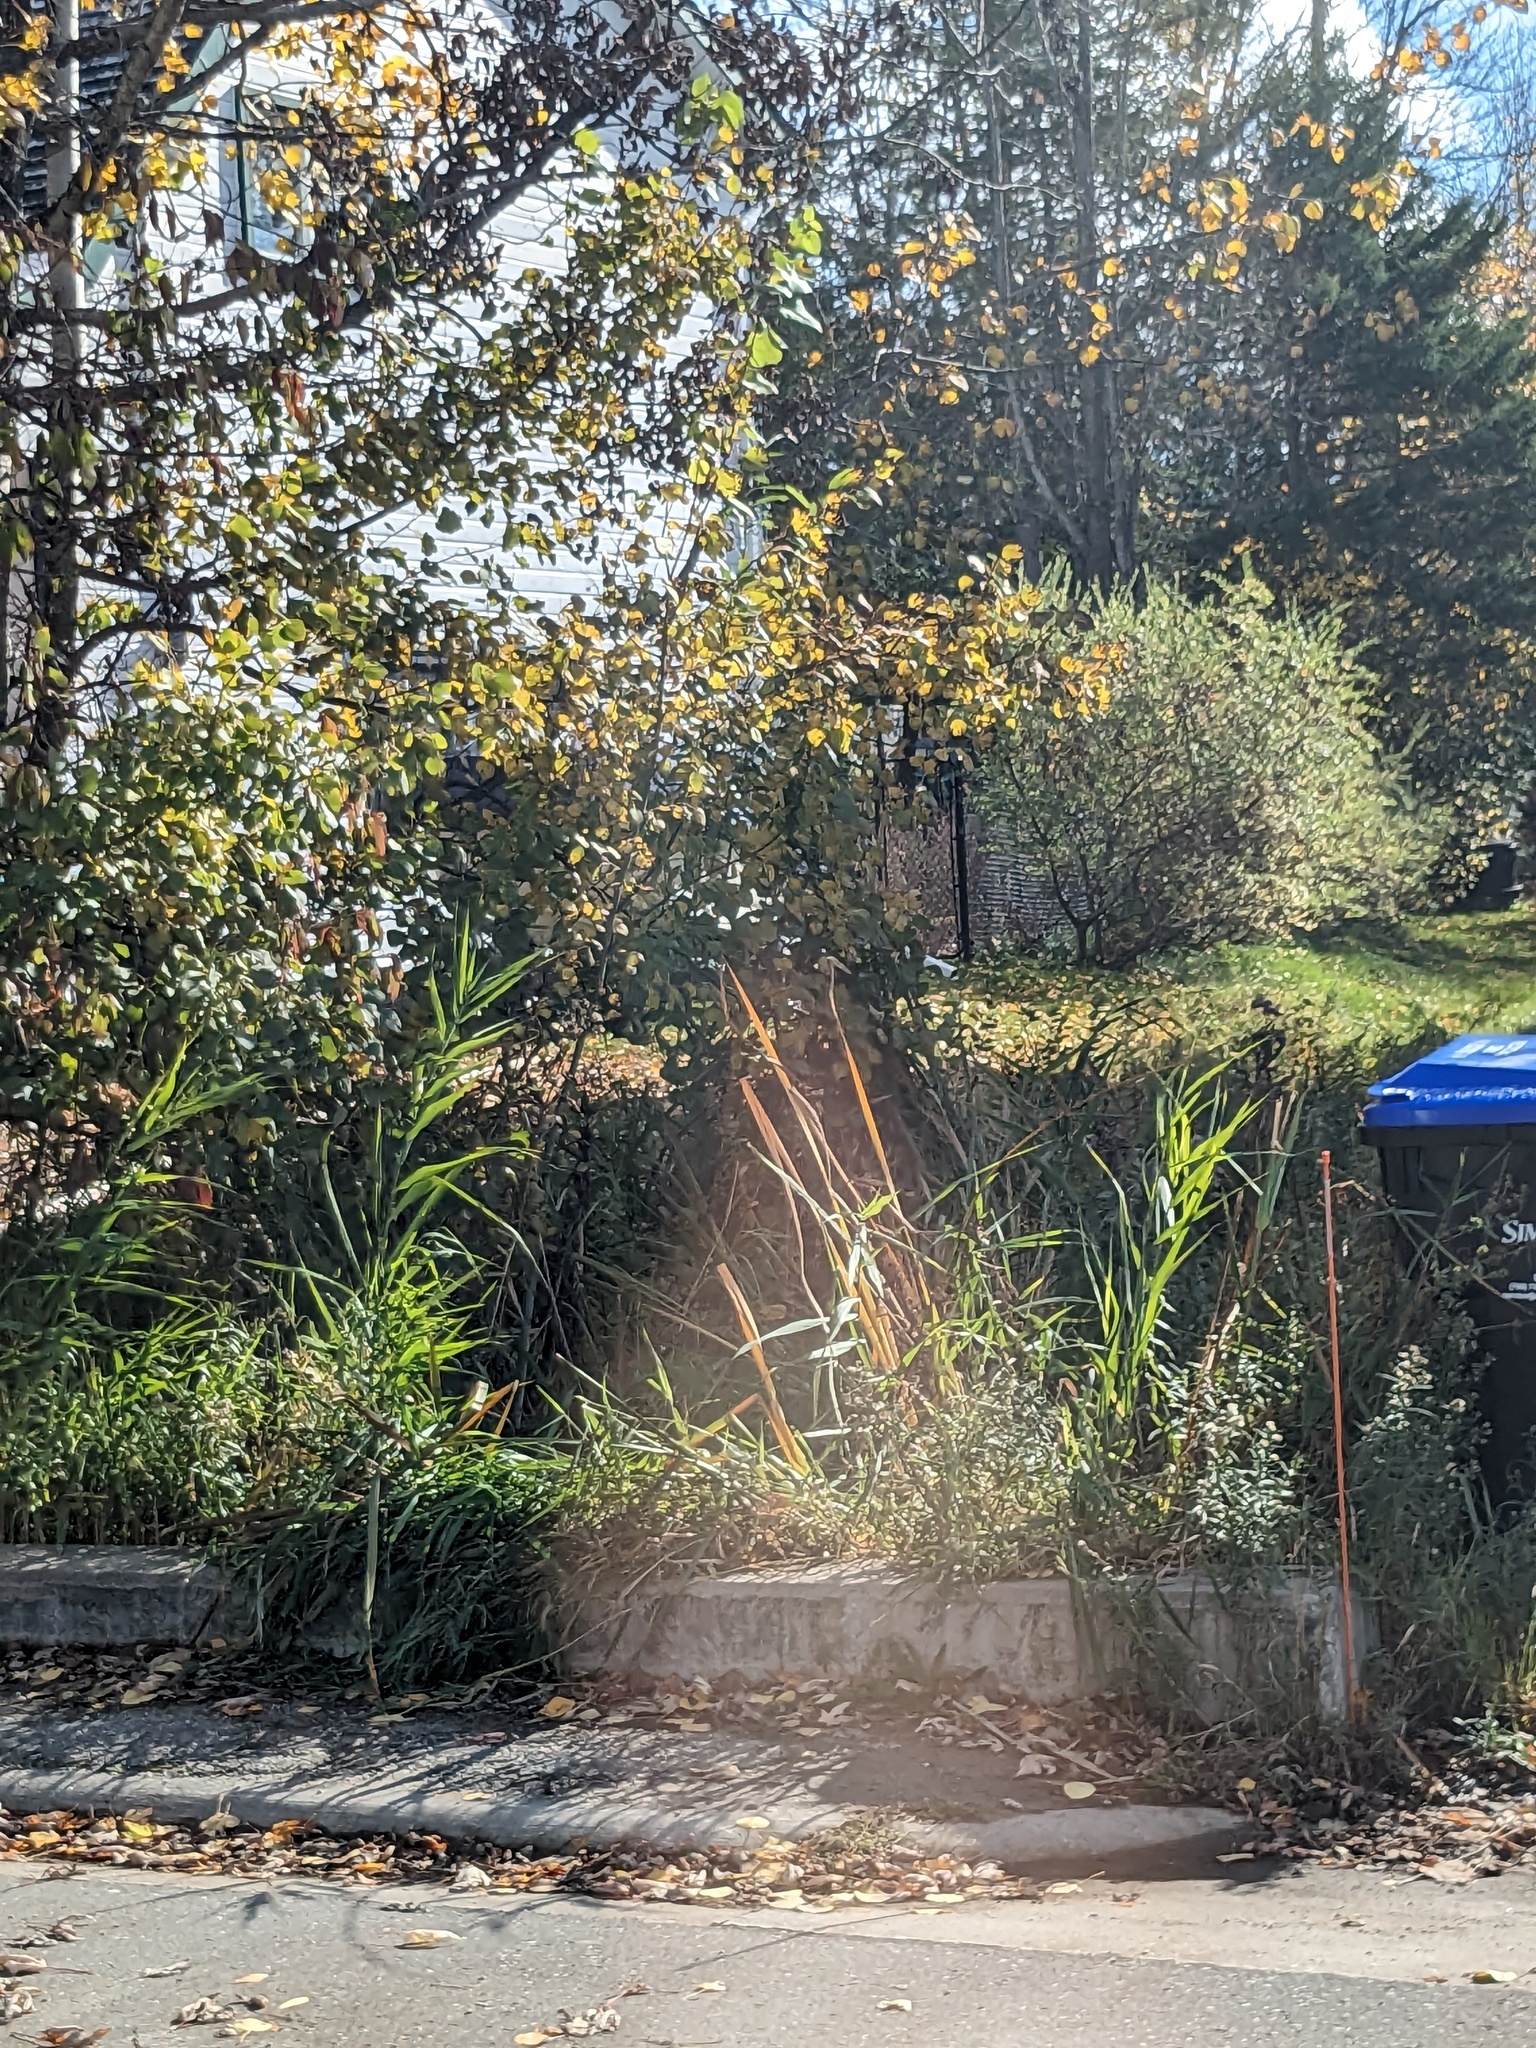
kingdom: Plantae
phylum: Tracheophyta
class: Liliopsida
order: Poales
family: Poaceae
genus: Phragmites
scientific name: Phragmites australis
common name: Common reed
